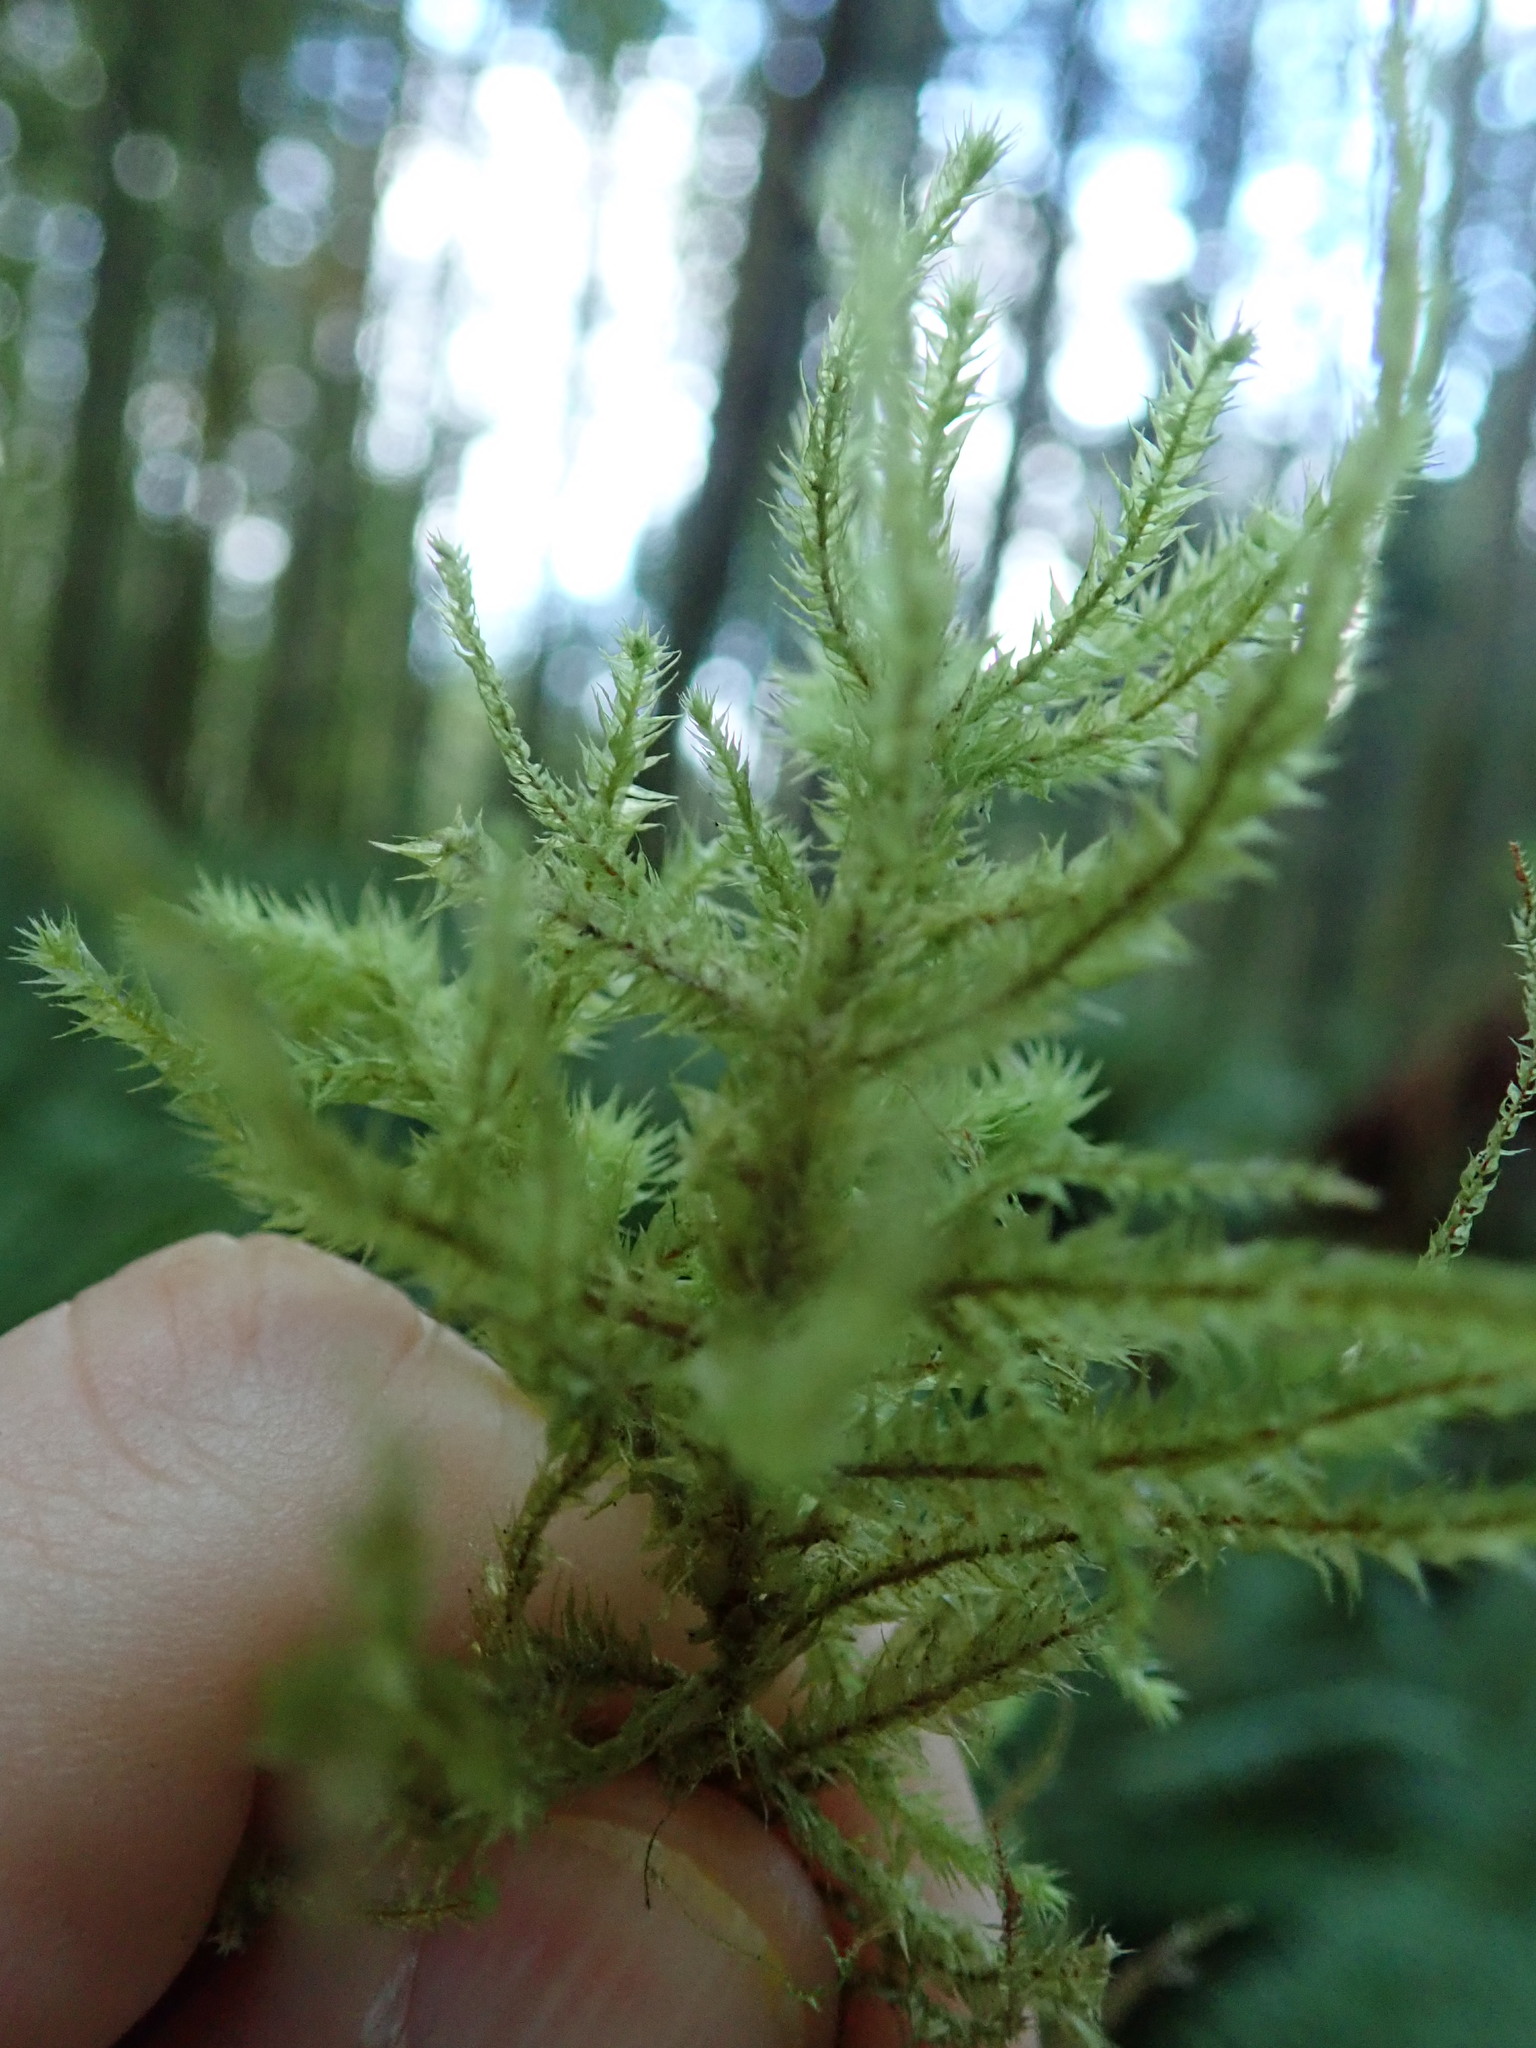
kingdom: Plantae
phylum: Bryophyta
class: Bryopsida
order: Hypnales
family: Hylocomiaceae
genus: Hylocomiadelphus
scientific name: Hylocomiadelphus triquetrus
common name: Rough goose neck moss
